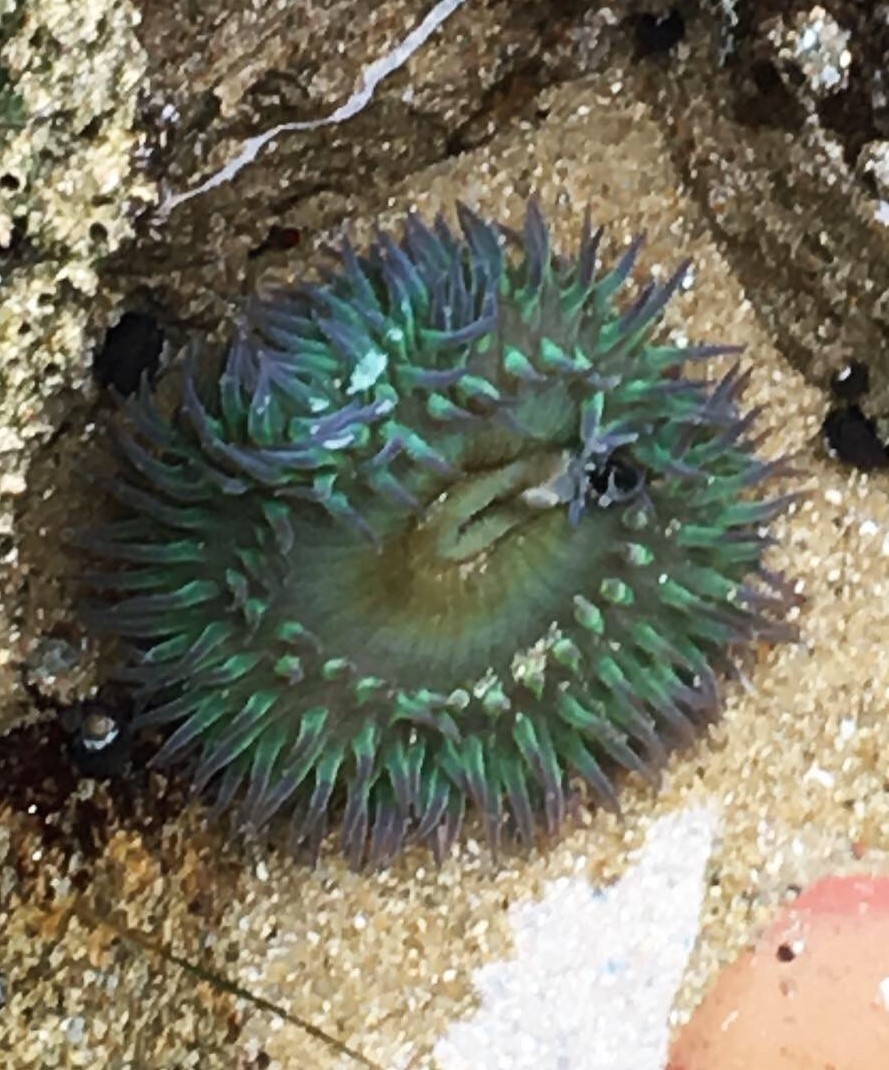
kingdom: Animalia
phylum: Cnidaria
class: Anthozoa
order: Actiniaria
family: Actiniidae
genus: Anthopleura
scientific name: Anthopleura xanthogrammica
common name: Giant green anemone
